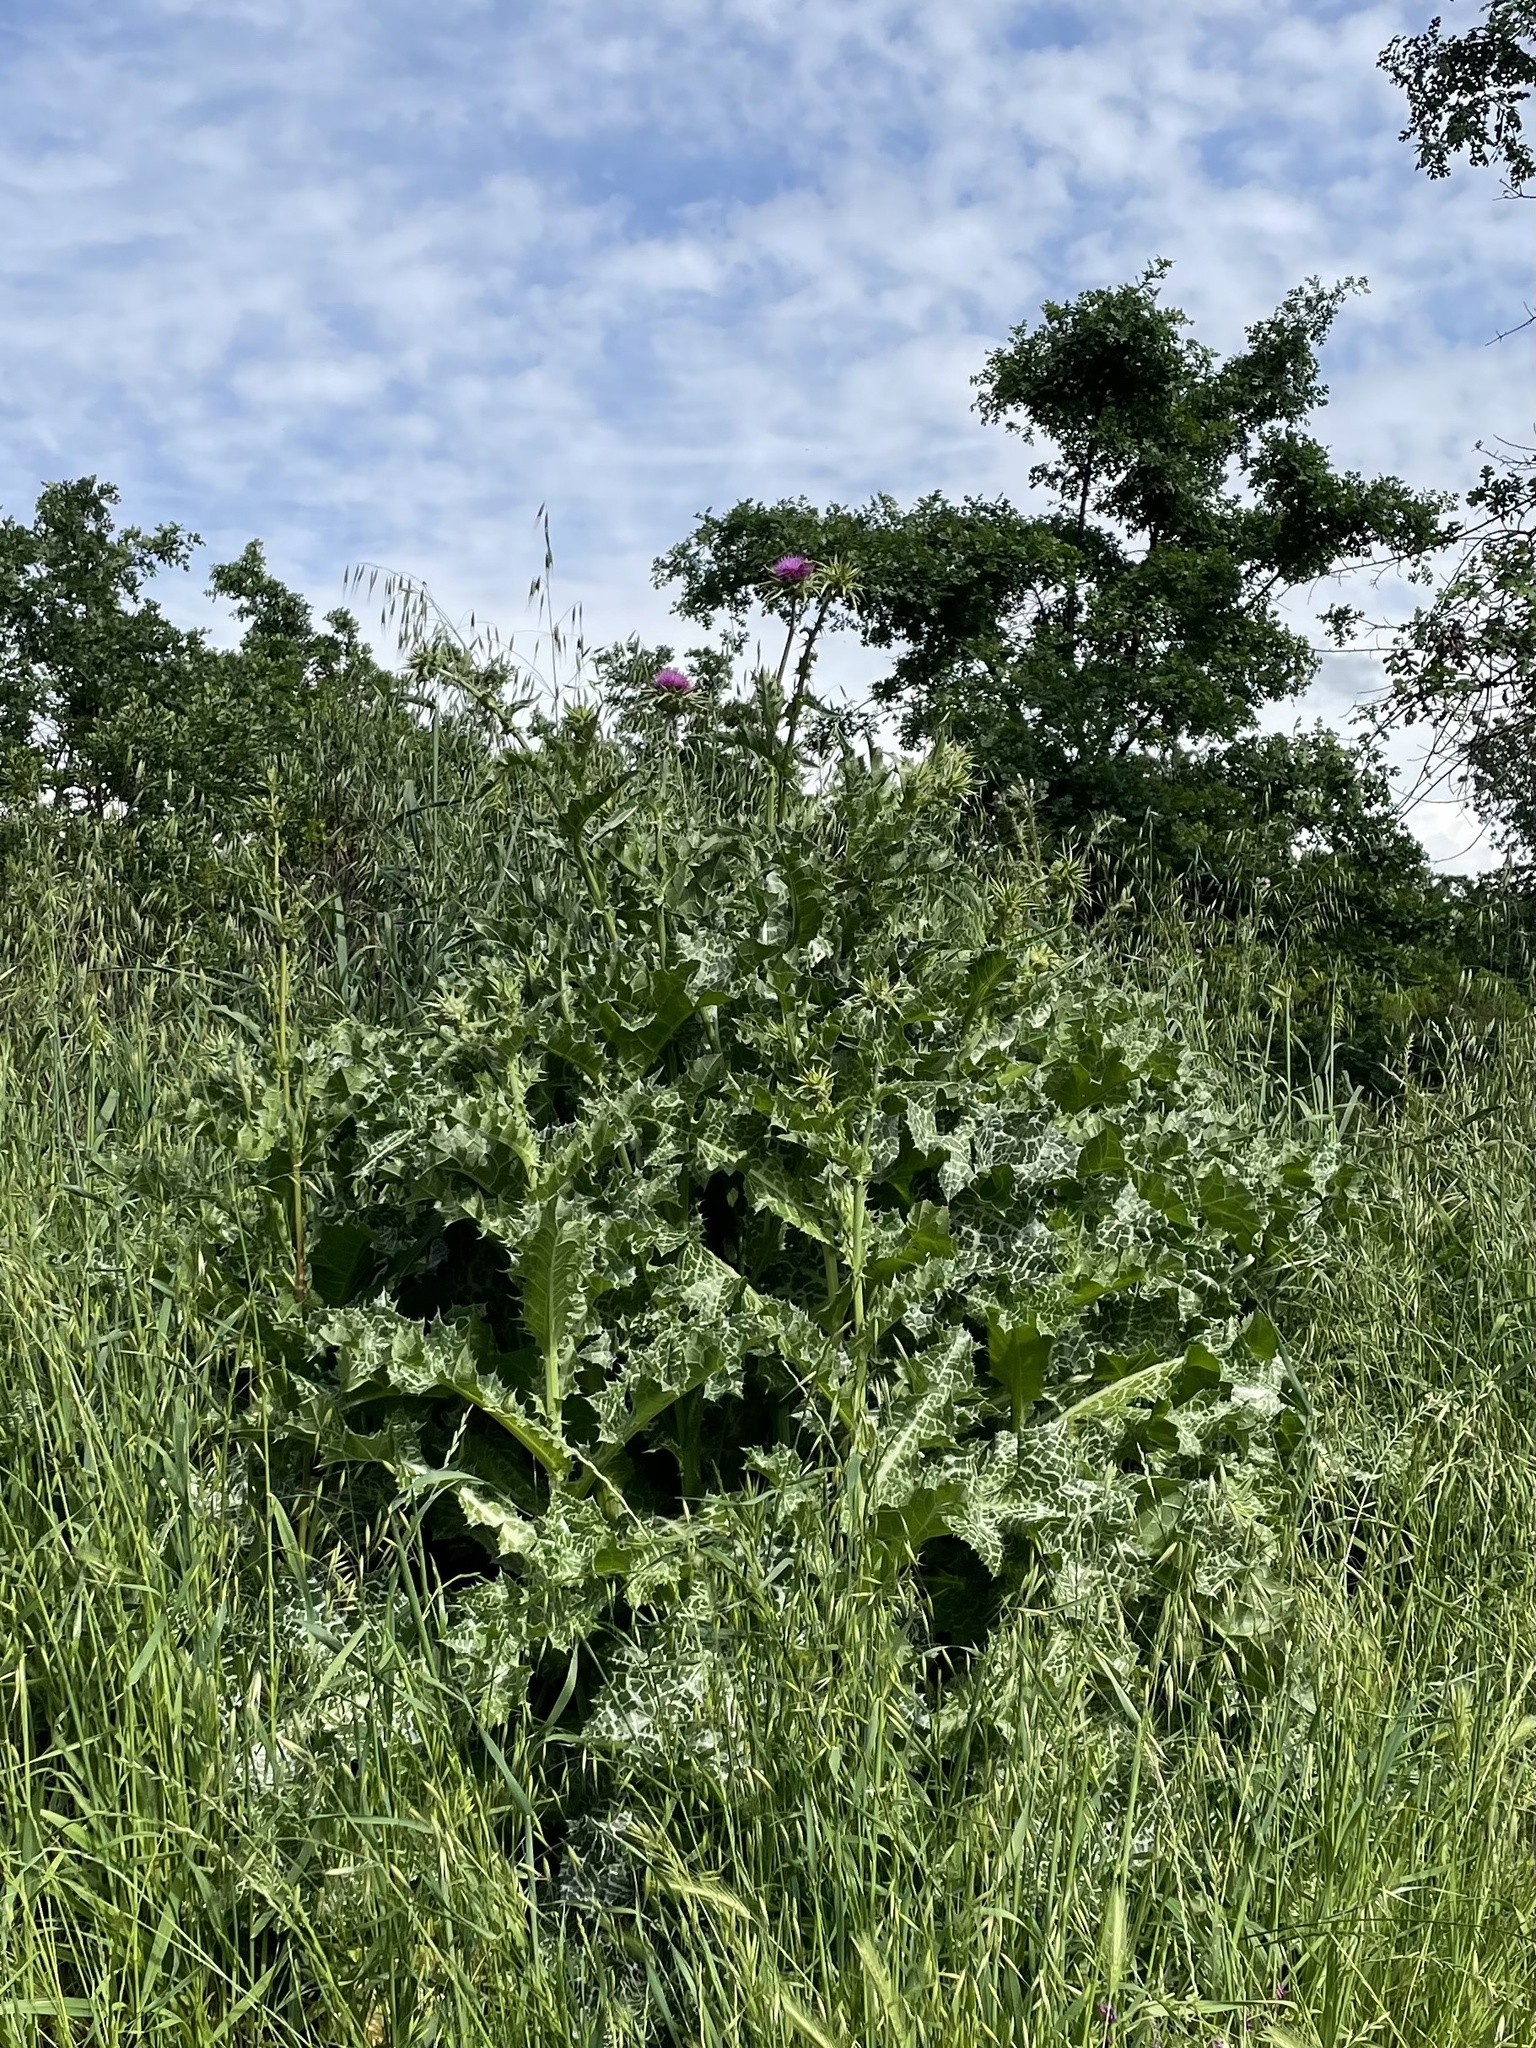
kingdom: Plantae
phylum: Tracheophyta
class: Magnoliopsida
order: Asterales
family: Asteraceae
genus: Silybum
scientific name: Silybum marianum
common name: Milk thistle
